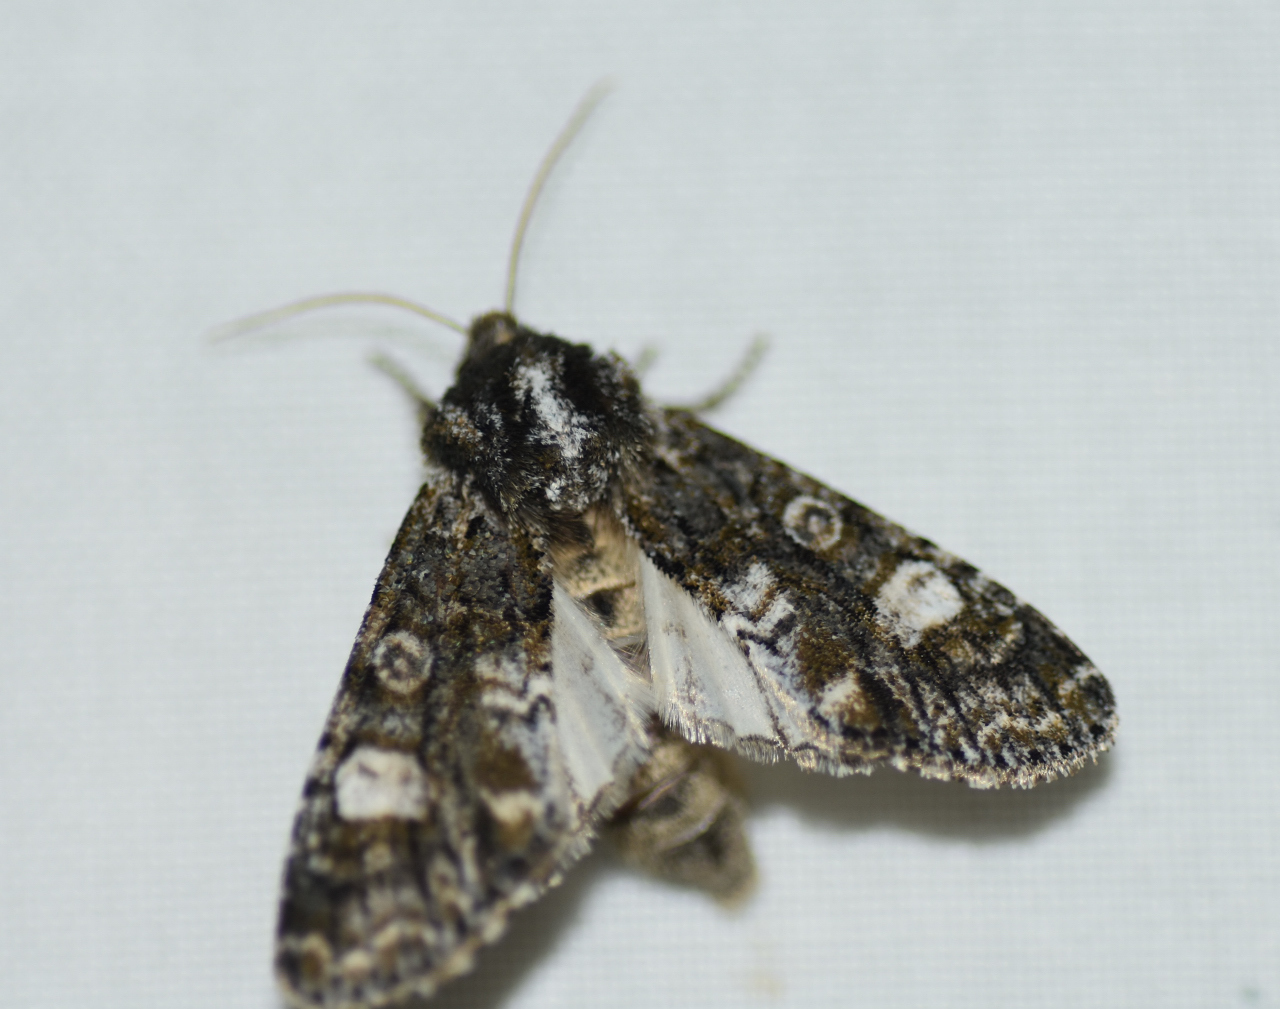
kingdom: Animalia
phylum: Arthropoda
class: Insecta
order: Lepidoptera
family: Noctuidae
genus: Psaphida
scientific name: Psaphida grotei
